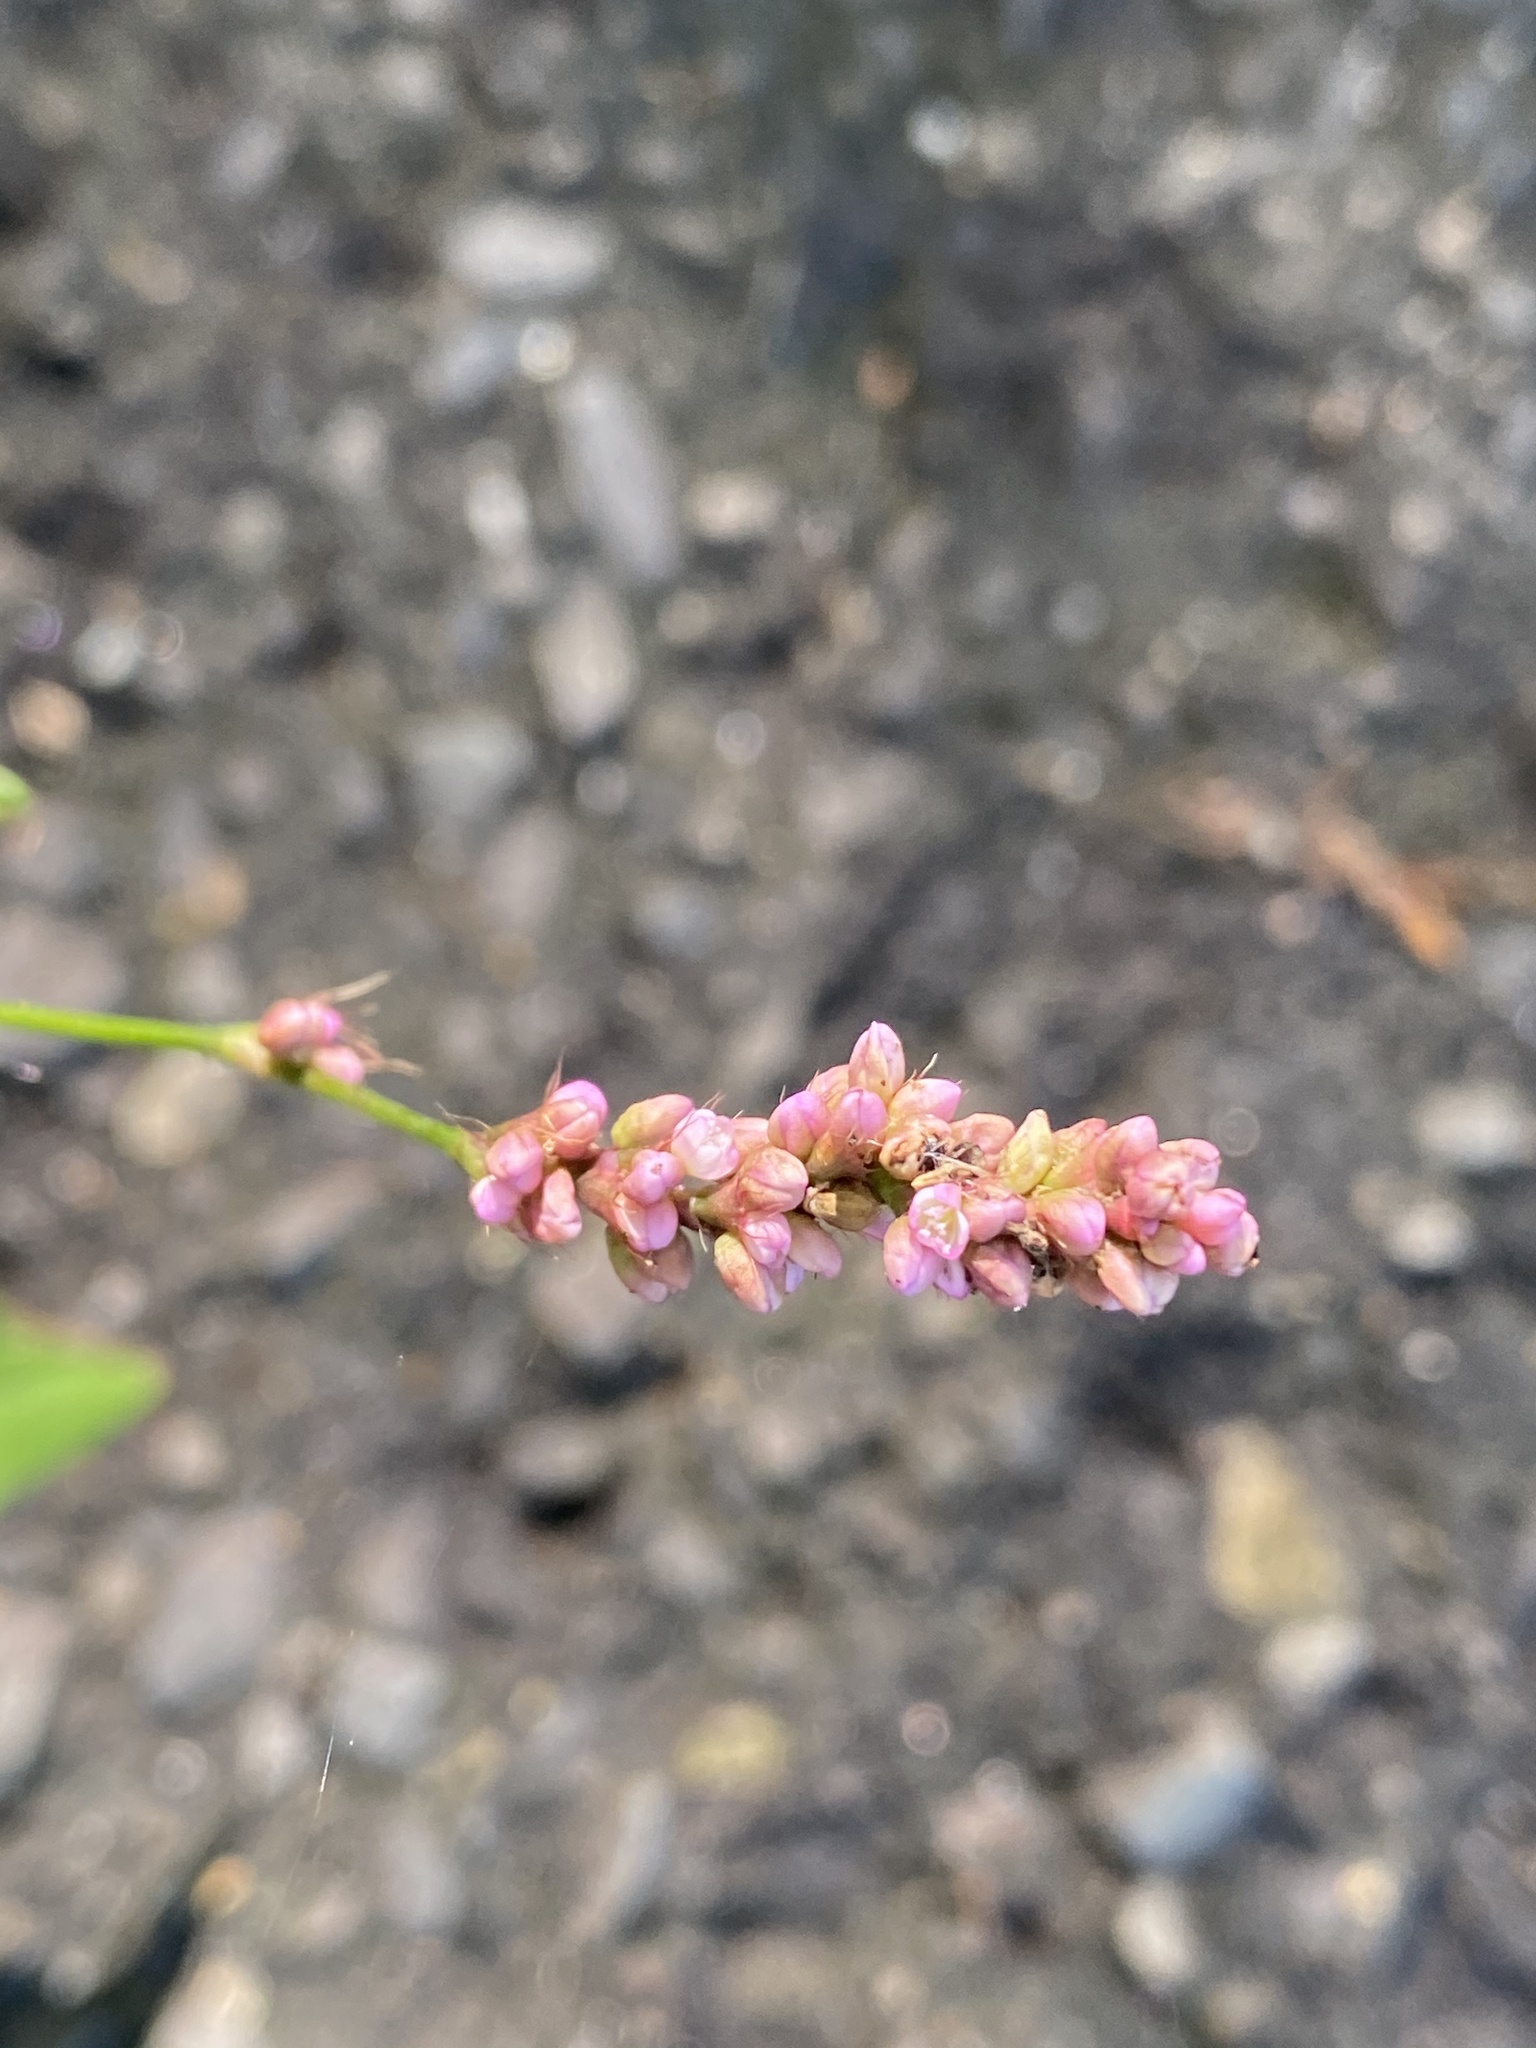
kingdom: Plantae
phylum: Tracheophyta
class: Magnoliopsida
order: Caryophyllales
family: Polygonaceae
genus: Persicaria
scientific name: Persicaria longiseta
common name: Bristly lady's-thumb
